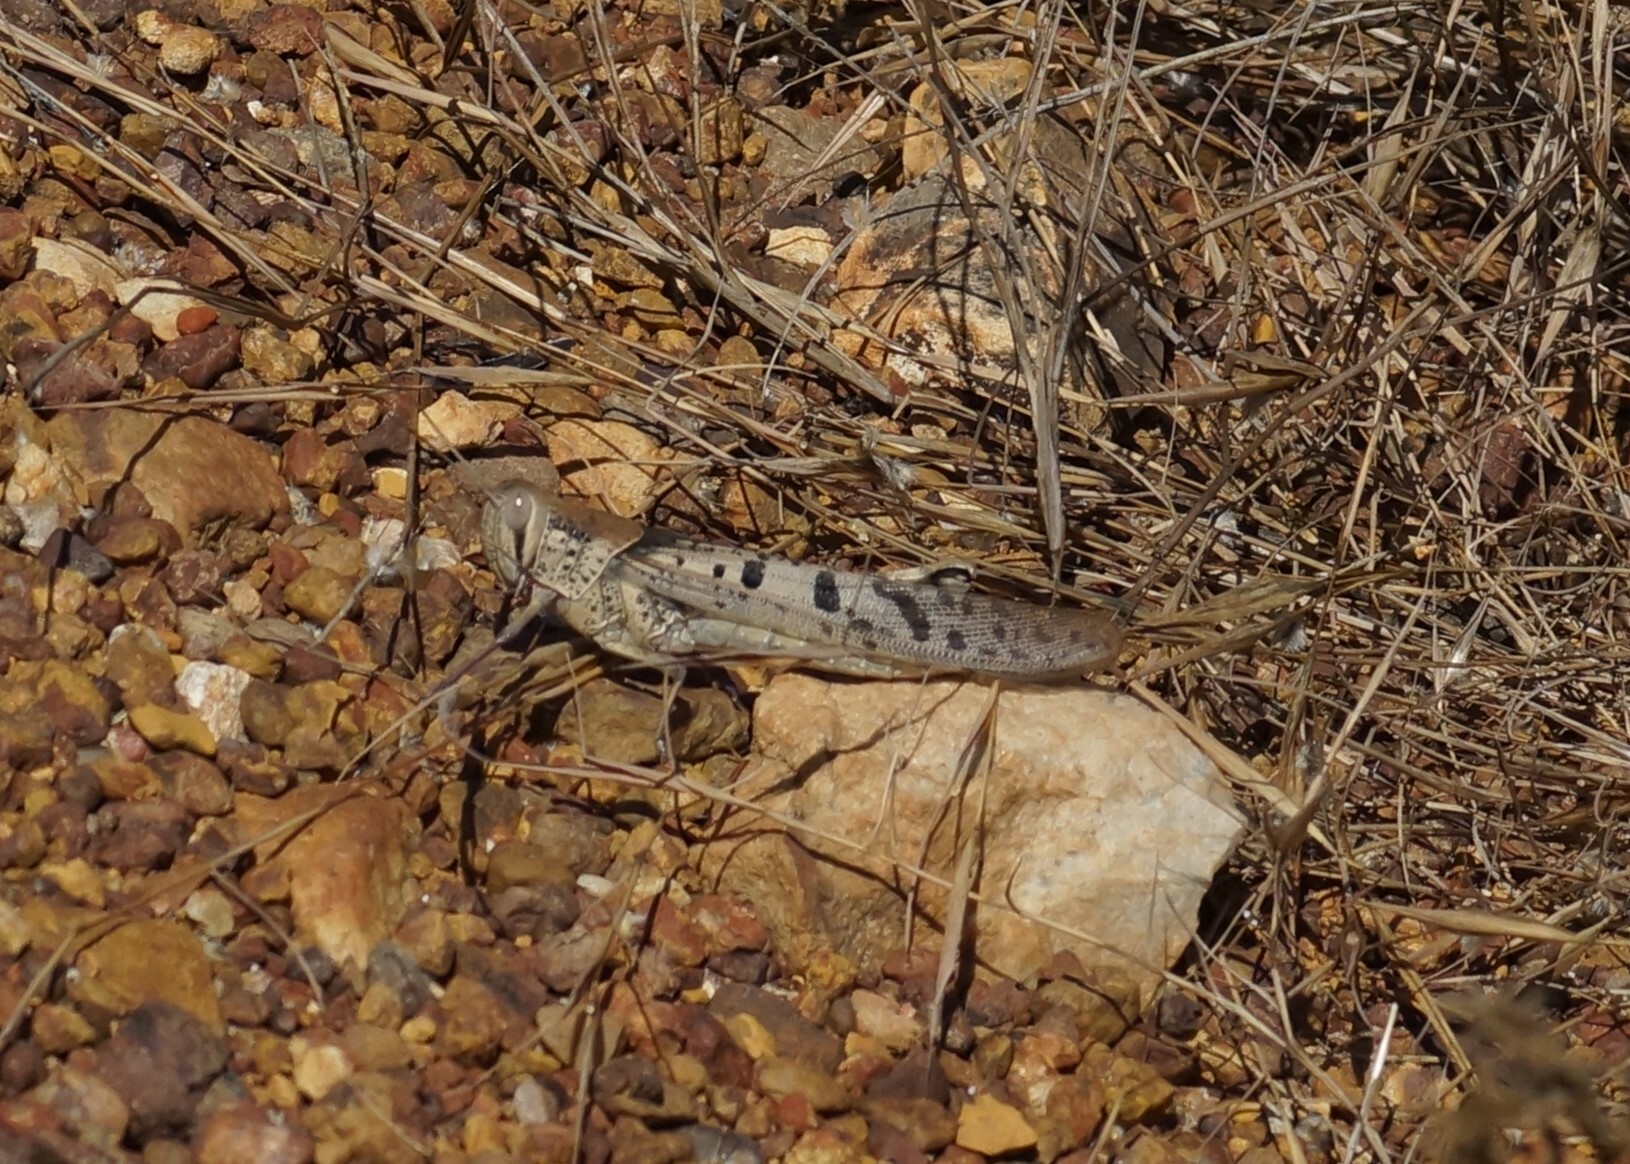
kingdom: Animalia
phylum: Arthropoda
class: Insecta
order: Orthoptera
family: Acrididae
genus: Austracris
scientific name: Austracris basalis
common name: Spotted spur-throated locust
